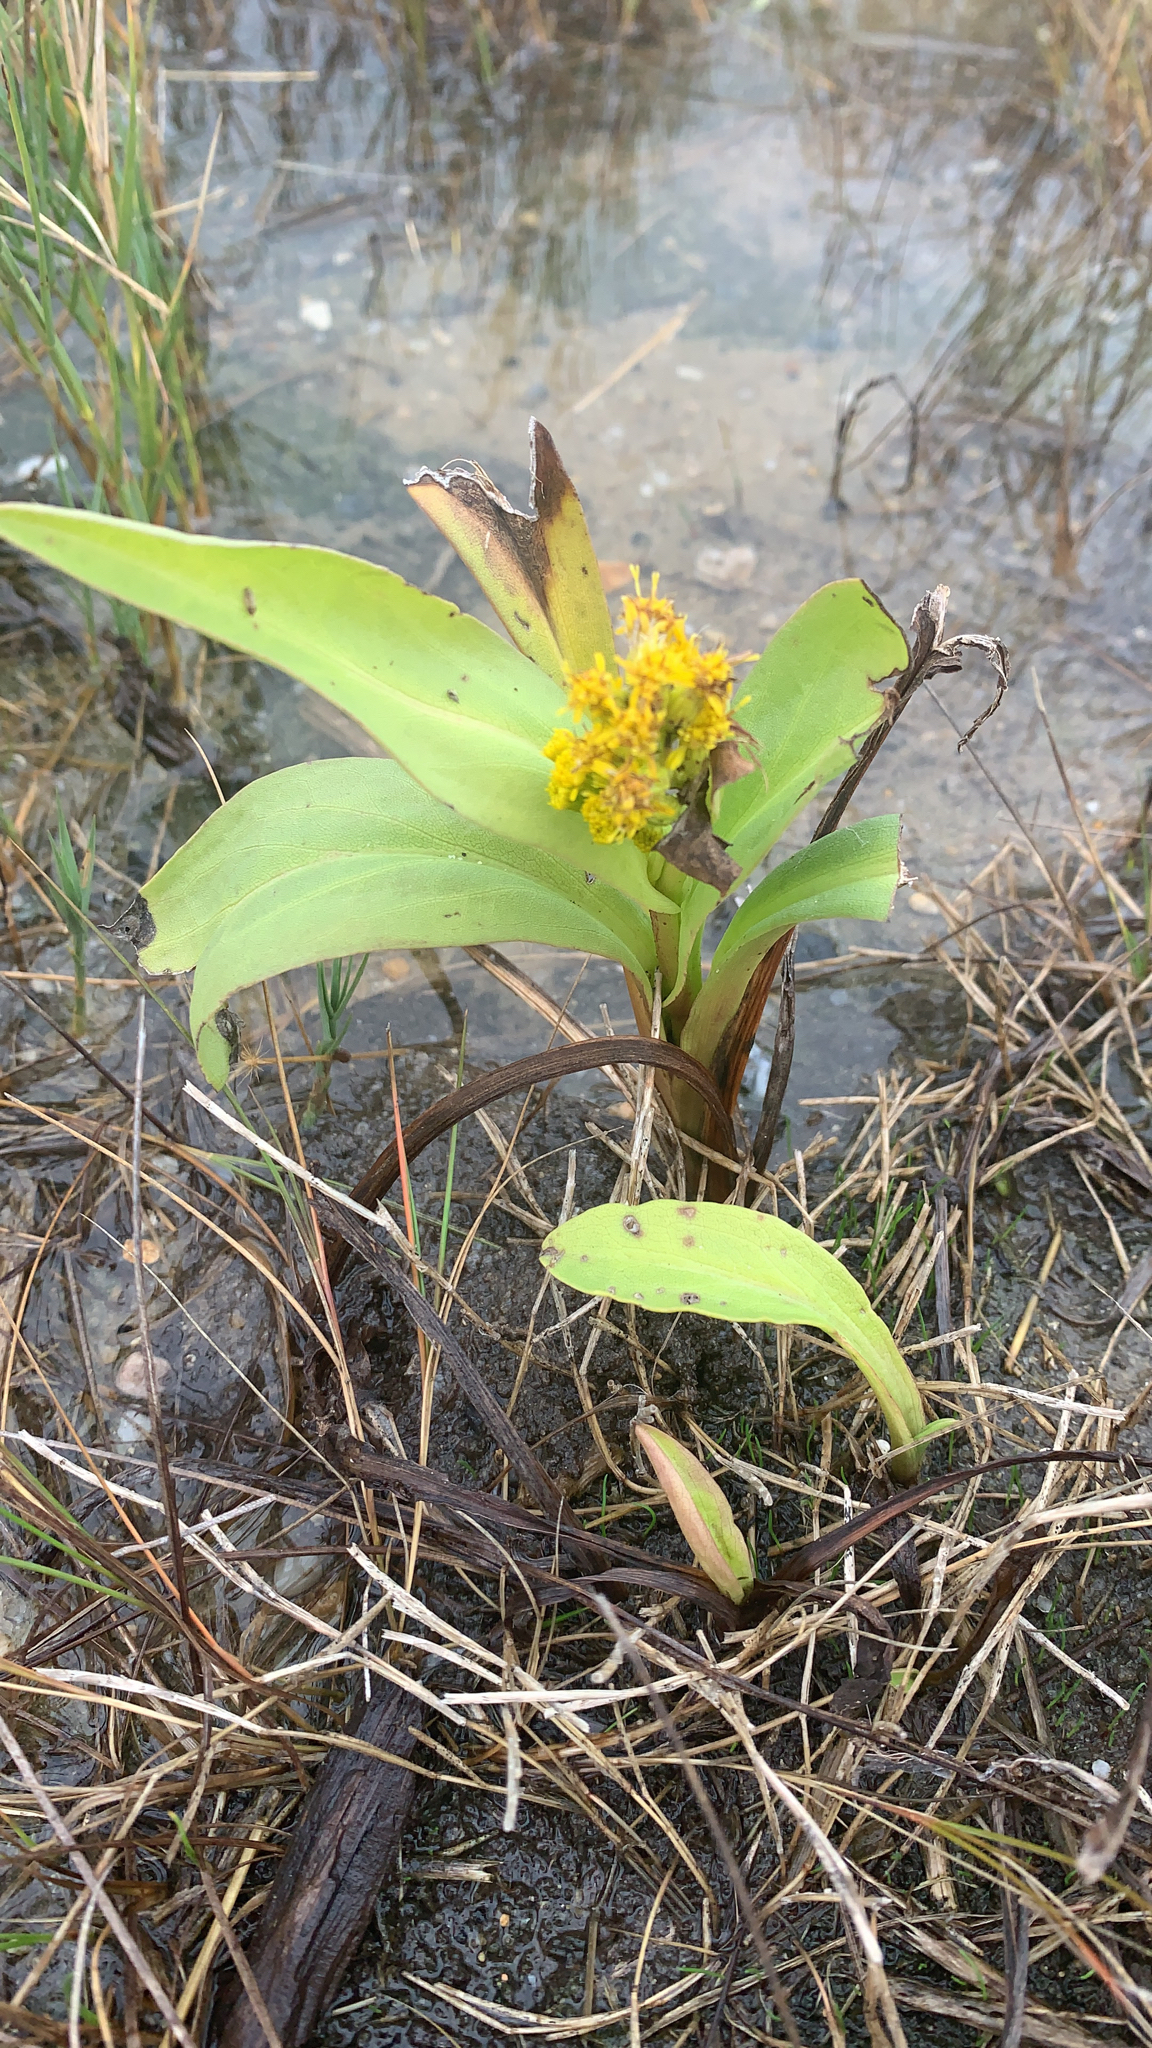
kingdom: Plantae
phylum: Tracheophyta
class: Magnoliopsida
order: Asterales
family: Asteraceae
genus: Solidago
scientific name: Solidago sempervirens
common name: Salt-marsh goldenrod
